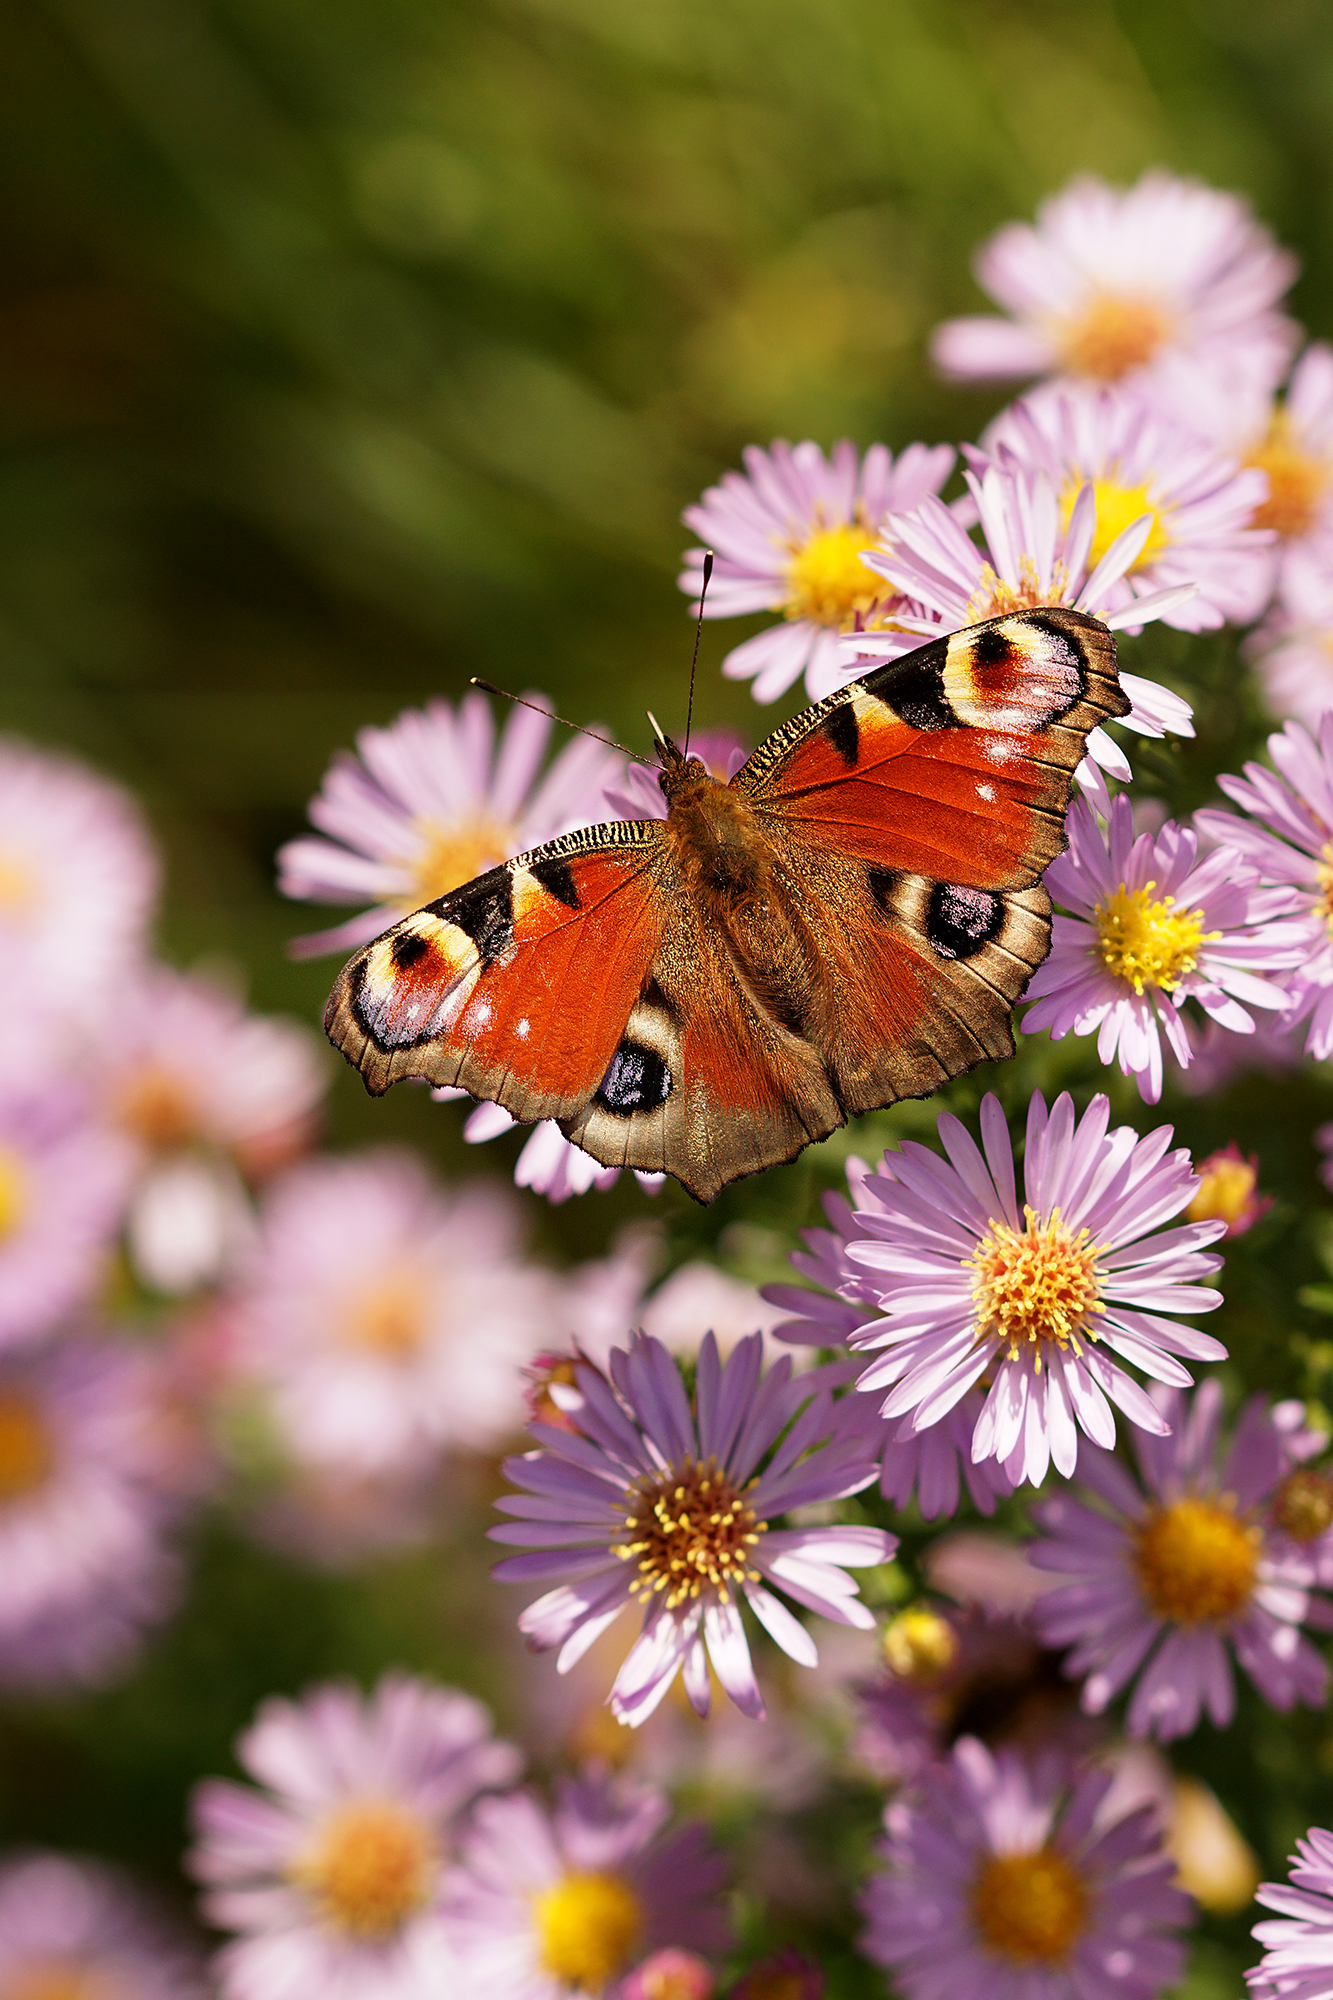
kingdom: Animalia
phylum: Arthropoda
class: Insecta
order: Lepidoptera
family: Nymphalidae
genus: Aglais
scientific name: Aglais io
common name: Peacock
